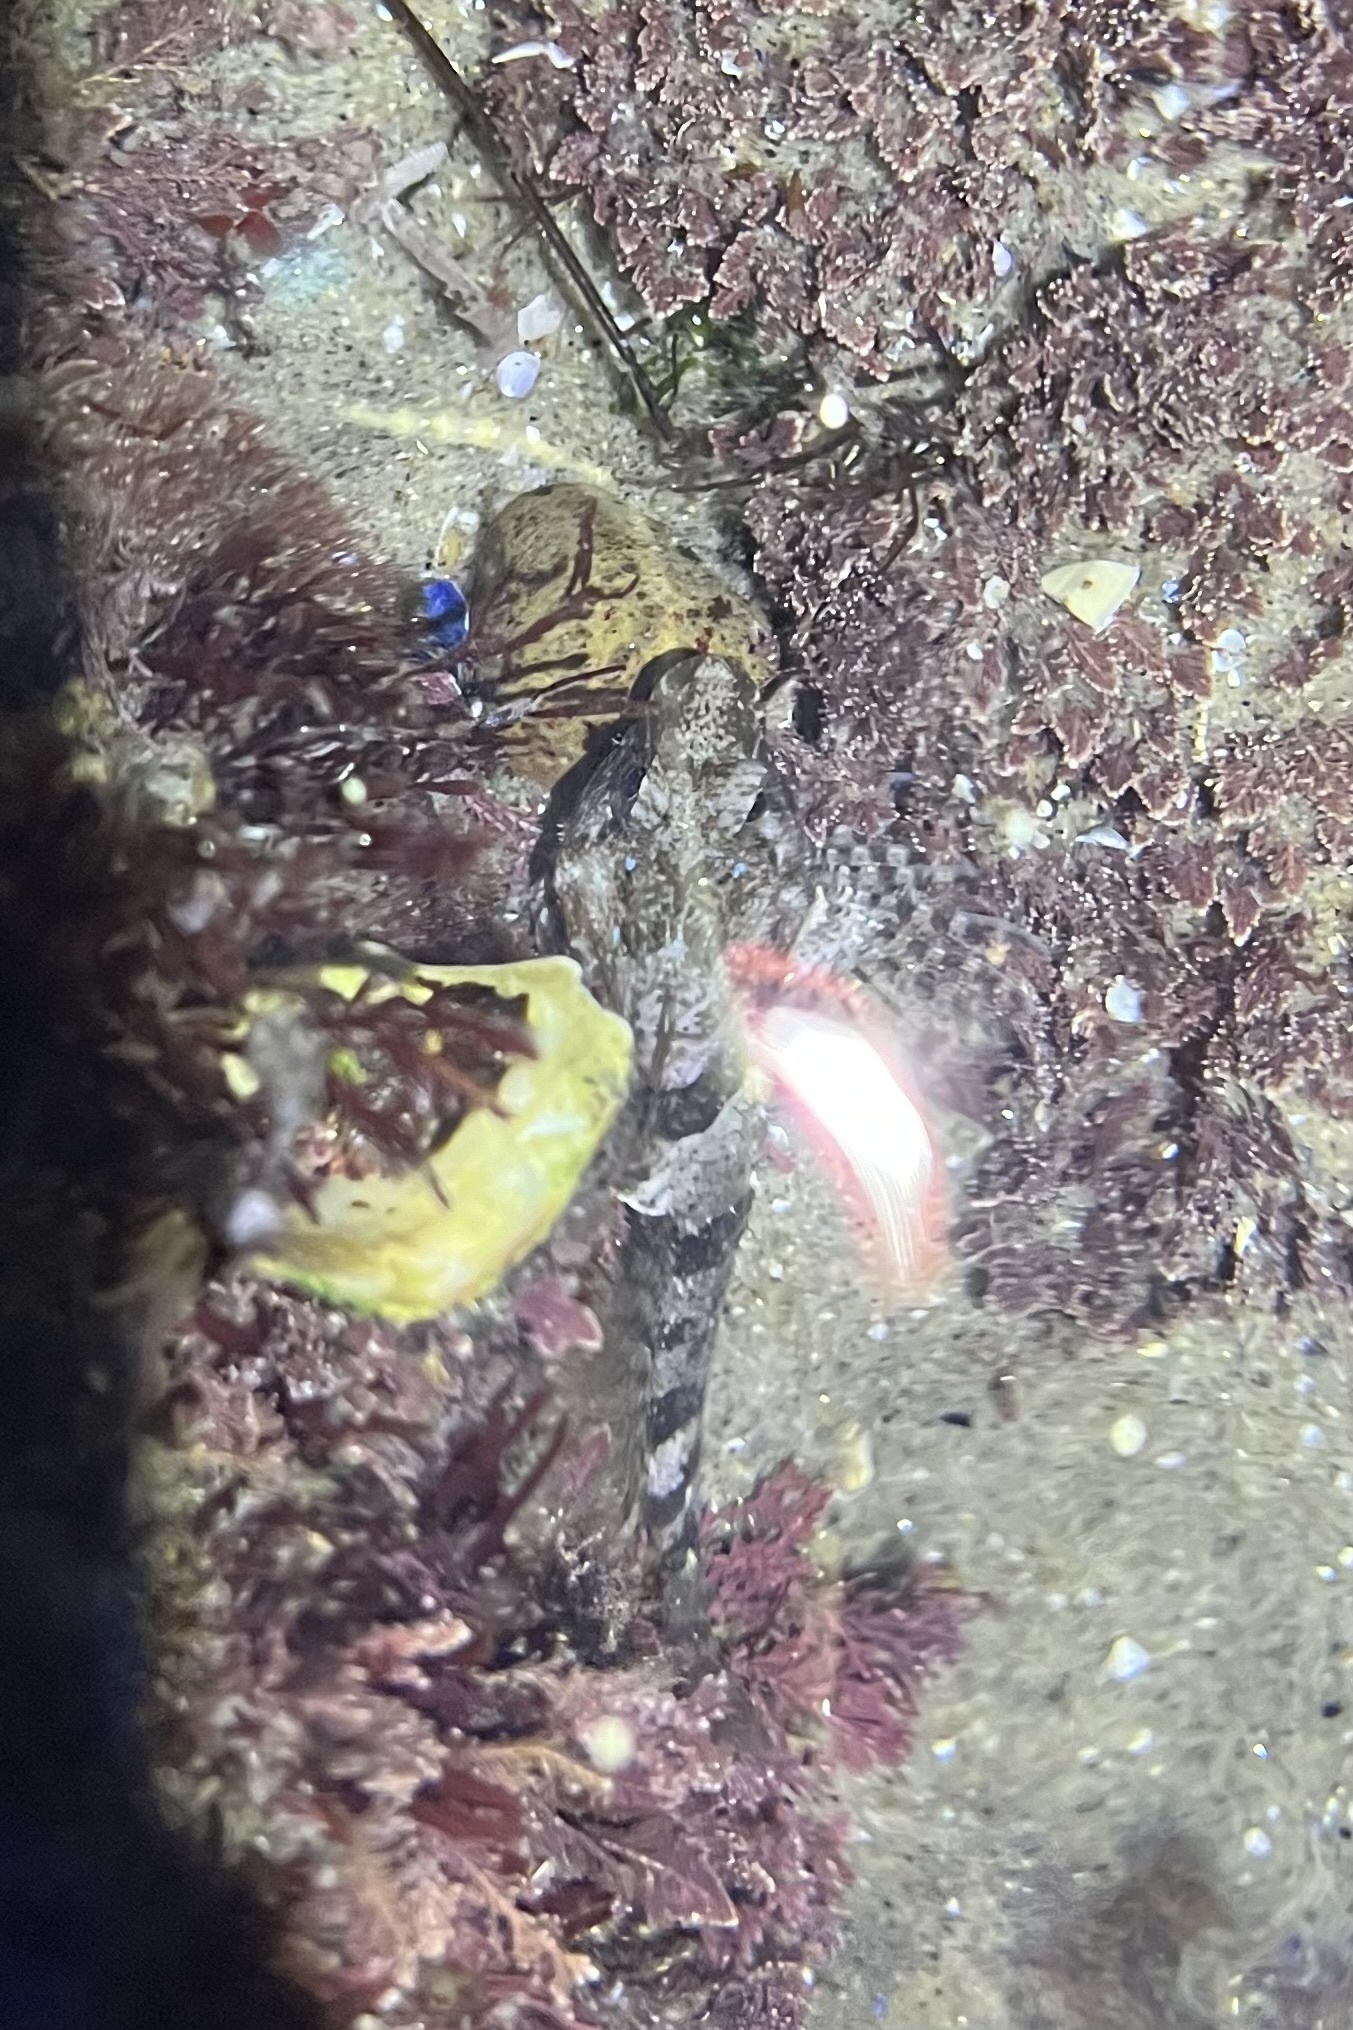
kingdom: Animalia
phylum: Chordata
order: Scorpaeniformes
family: Cottidae
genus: Clinocottus
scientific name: Clinocottus analis
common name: Woolly sculpin
